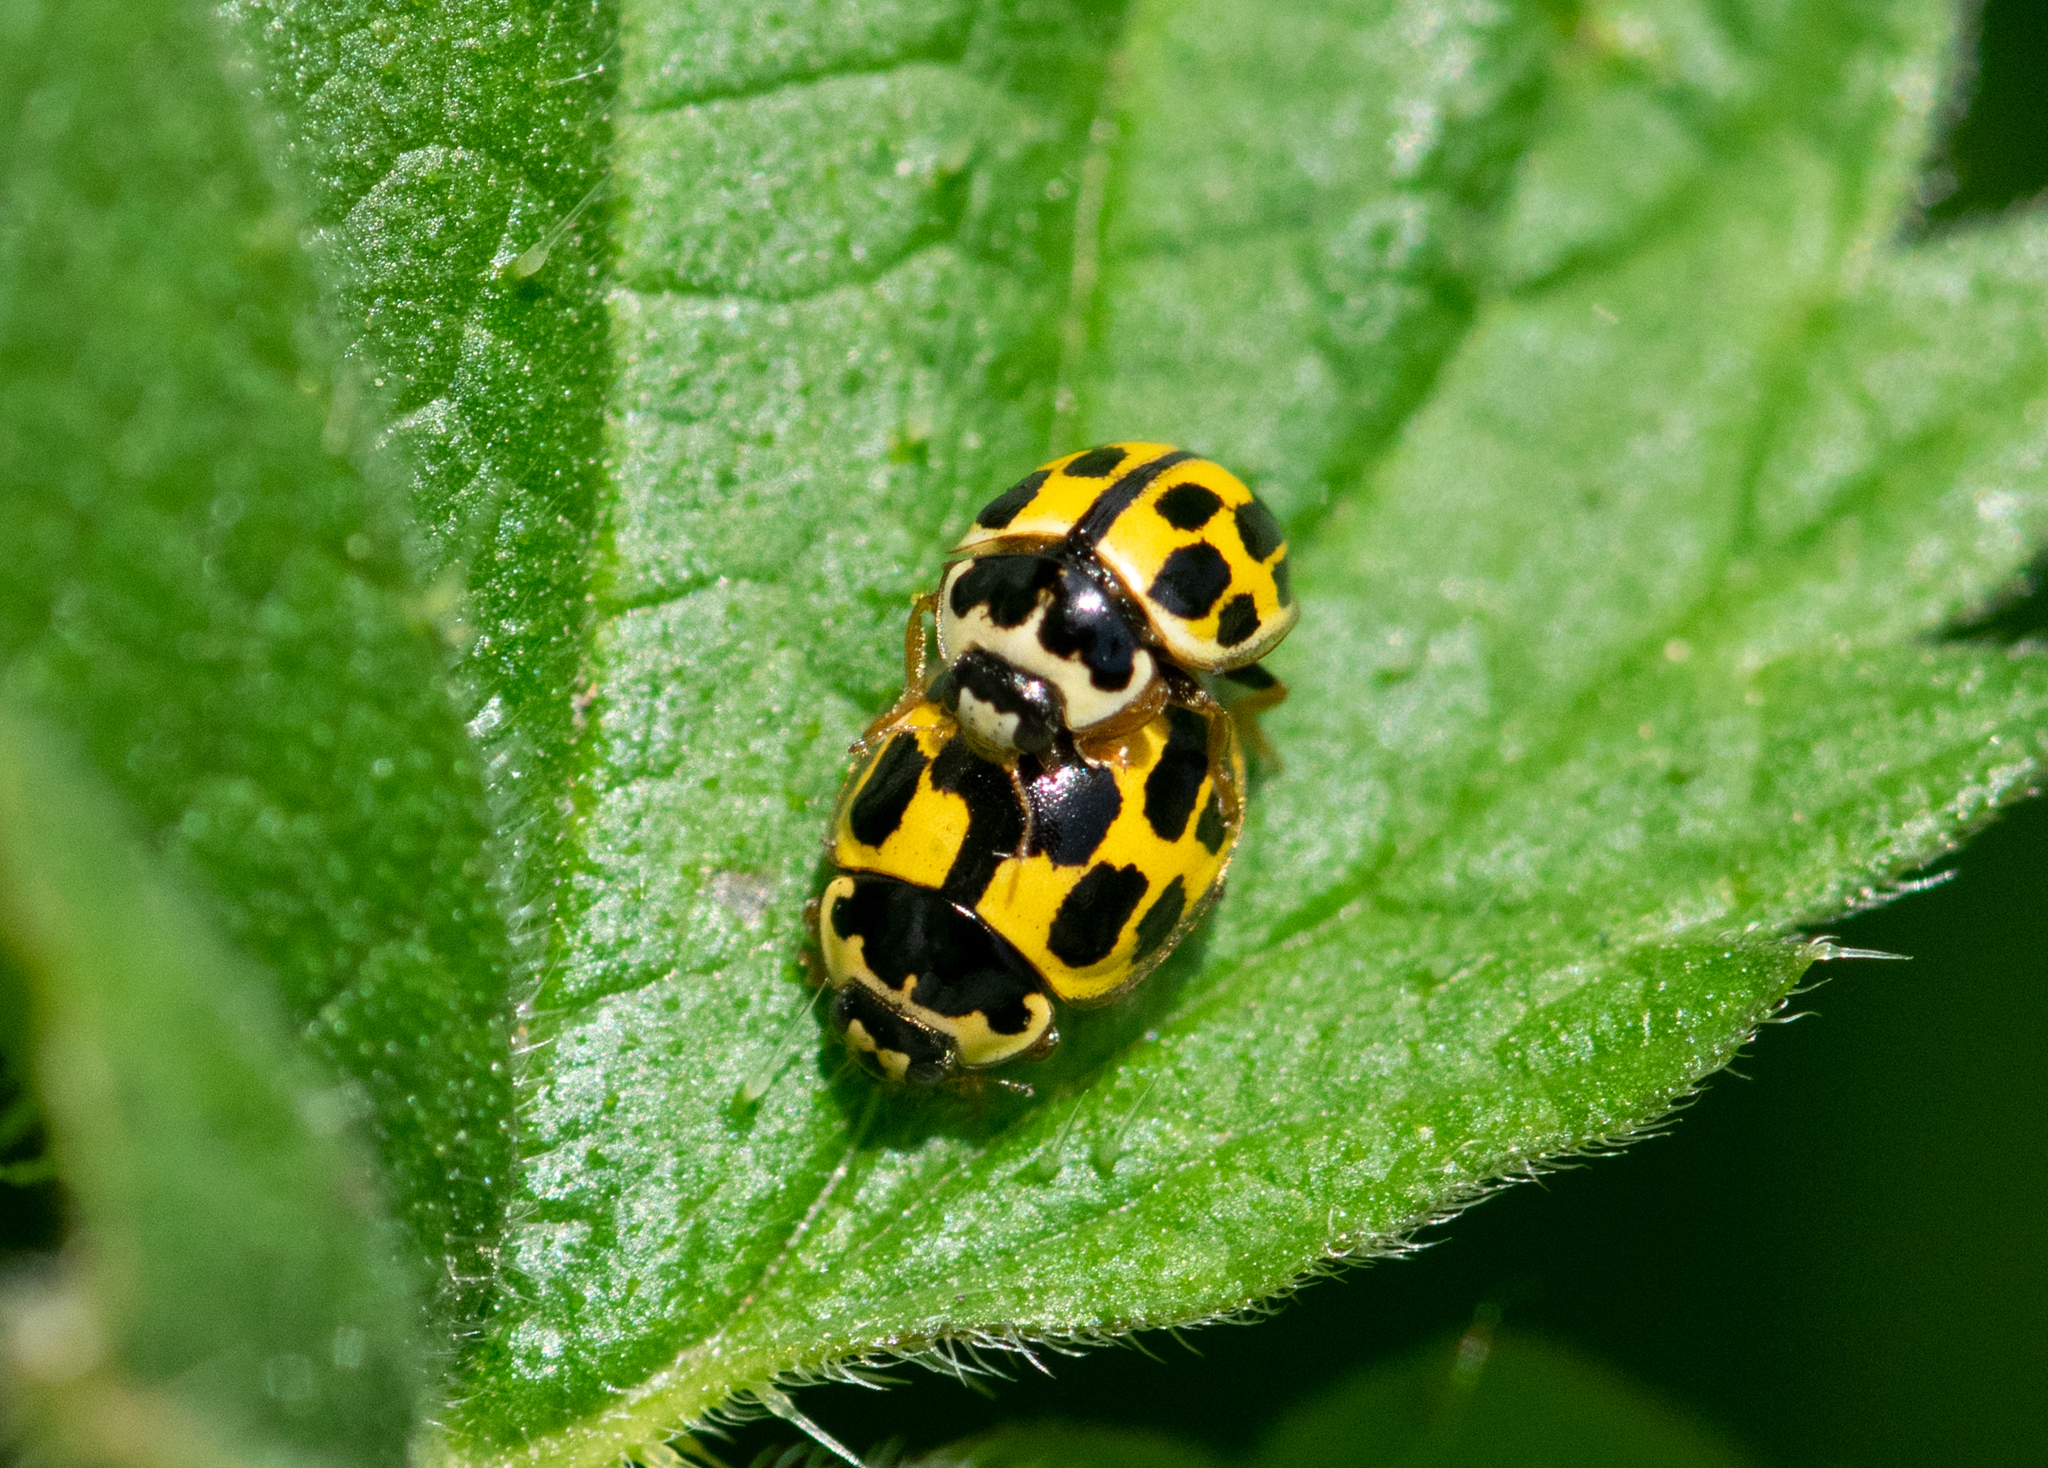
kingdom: Animalia
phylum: Arthropoda
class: Insecta
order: Coleoptera
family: Coccinellidae
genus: Propylaea
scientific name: Propylaea quatuordecimpunctata
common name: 14-spotted ladybird beetle
